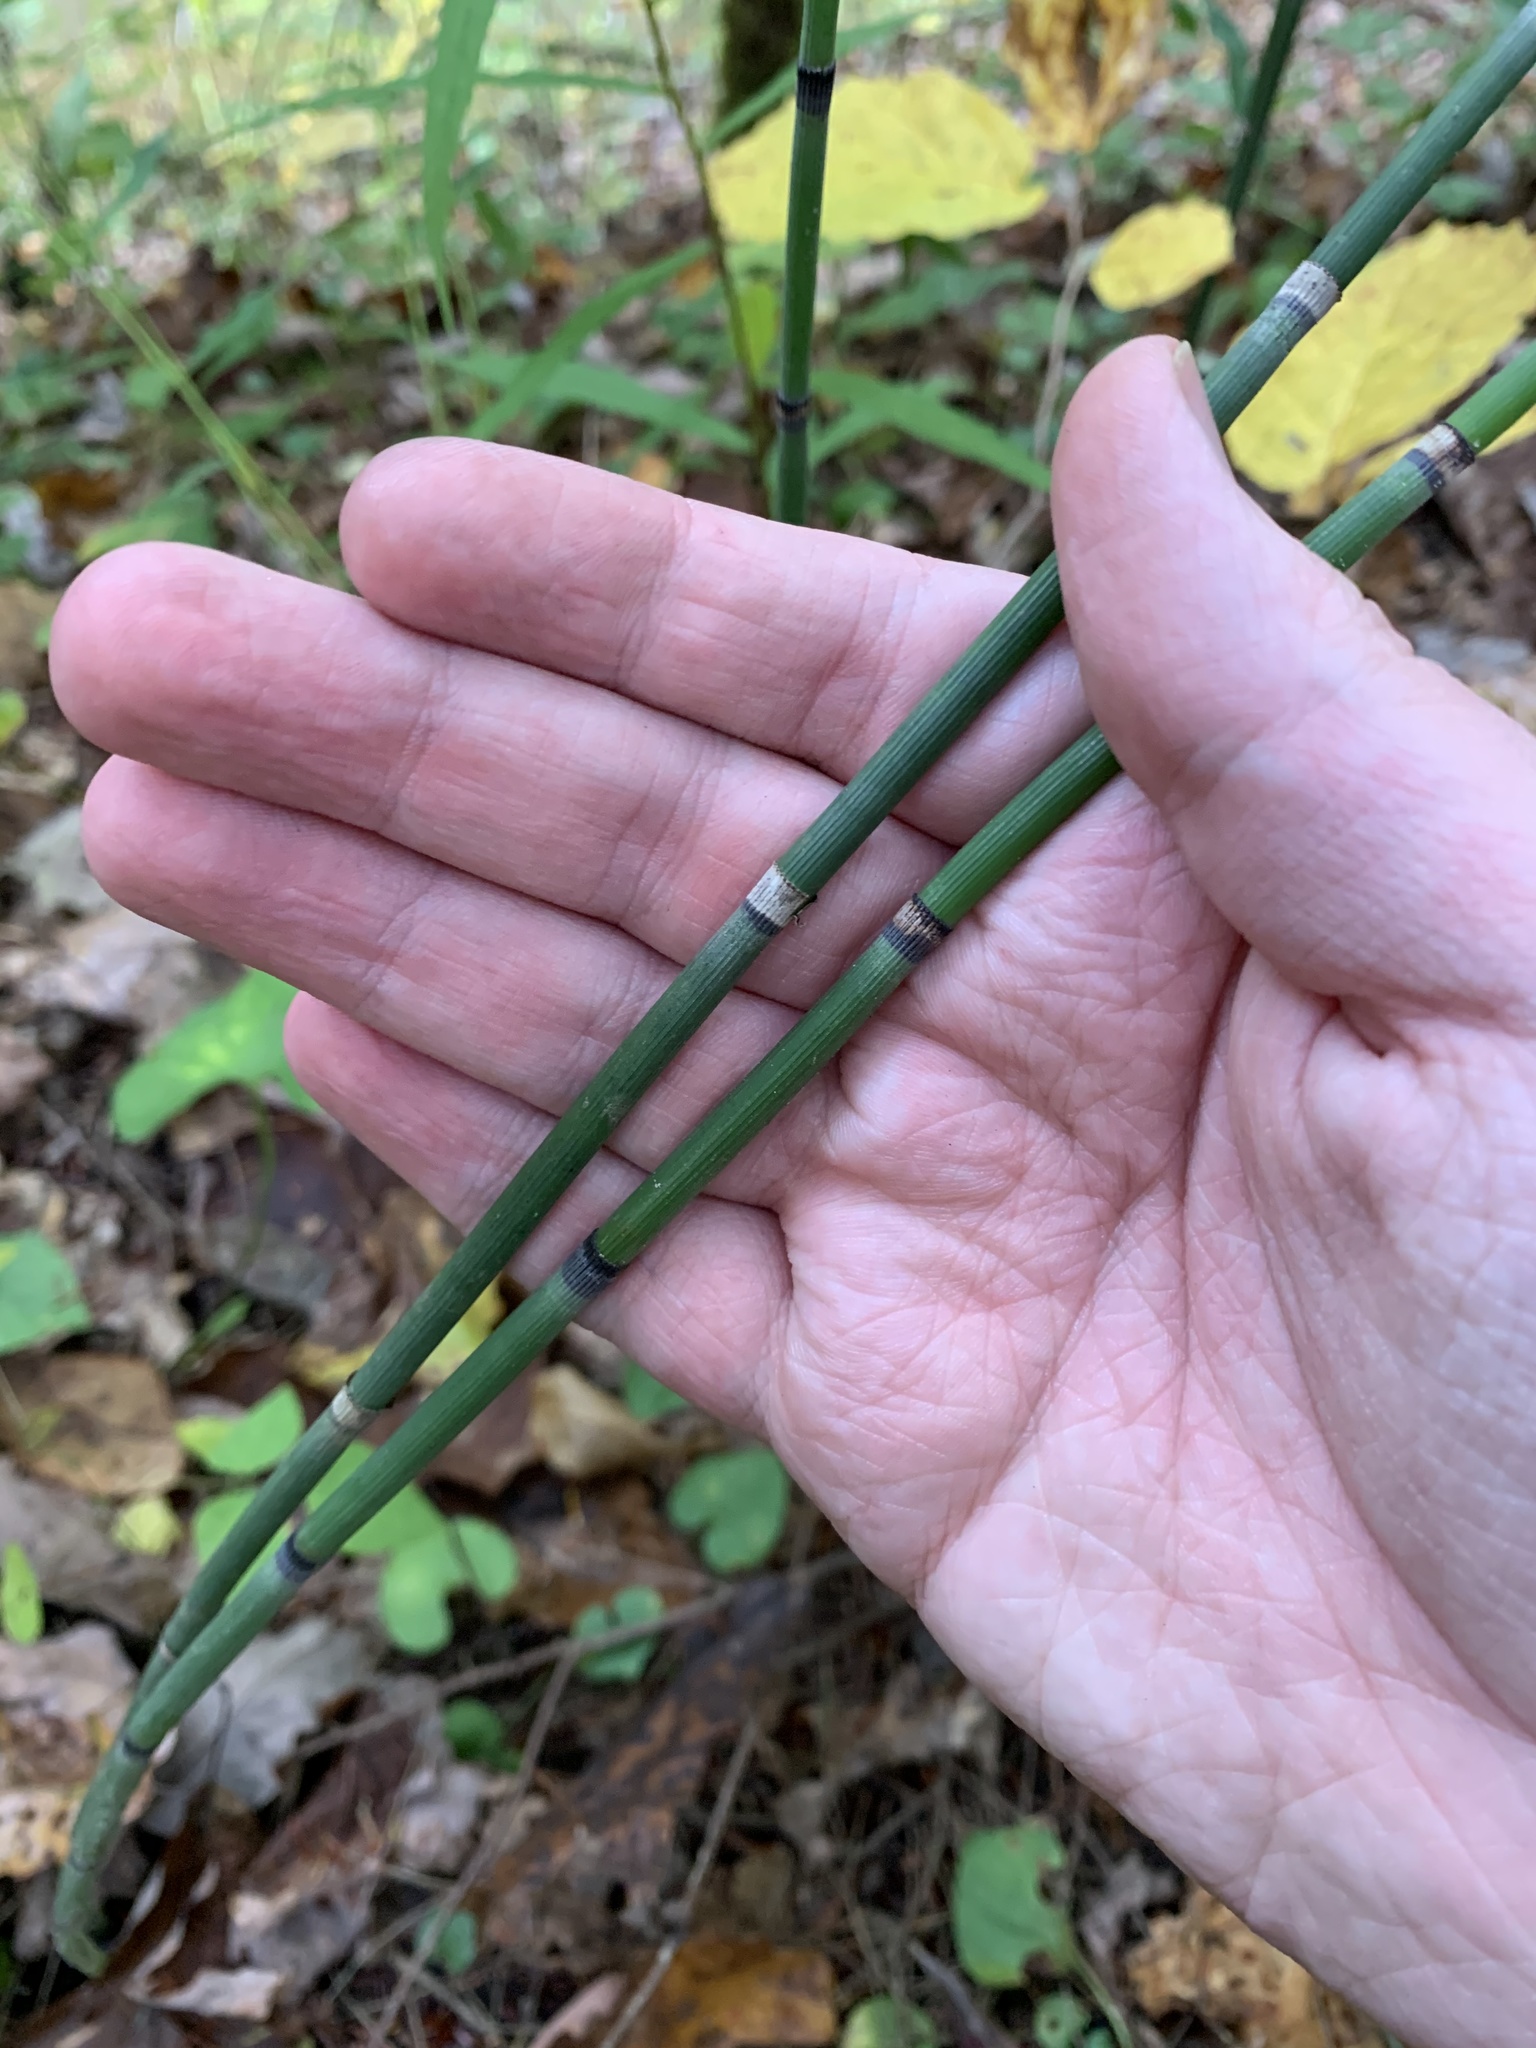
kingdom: Plantae
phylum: Tracheophyta
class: Polypodiopsida
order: Equisetales
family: Equisetaceae
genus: Equisetum
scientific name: Equisetum praealtum
